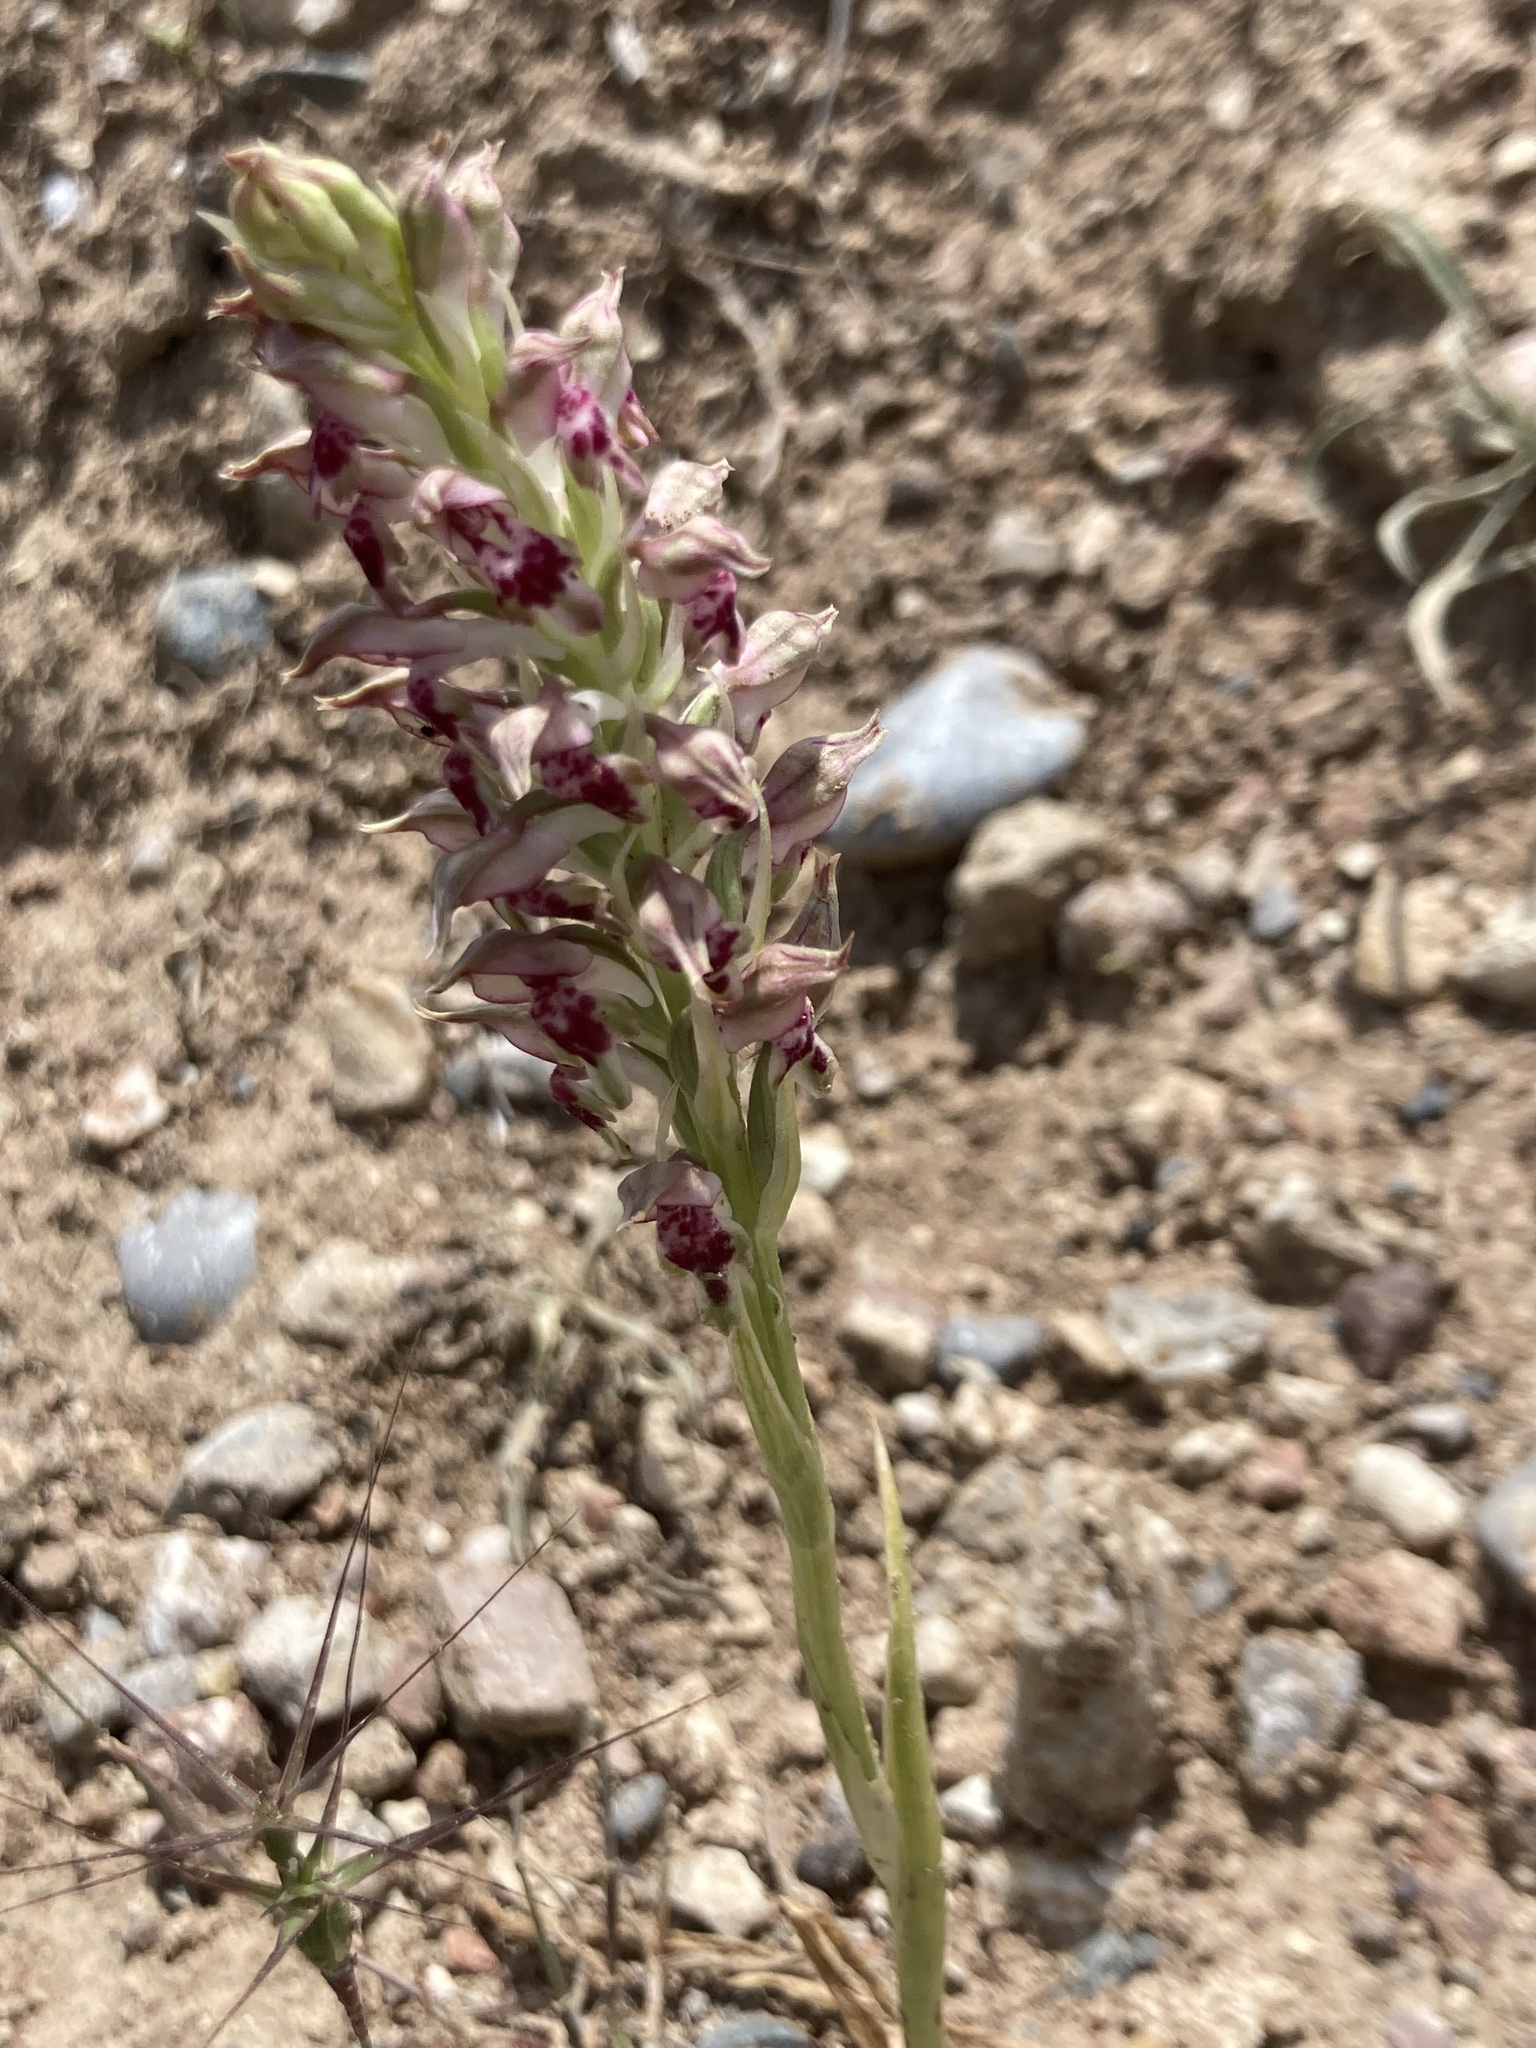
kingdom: Plantae
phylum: Tracheophyta
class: Liliopsida
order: Asparagales
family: Orchidaceae
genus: Anacamptis
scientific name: Anacamptis coriophora
